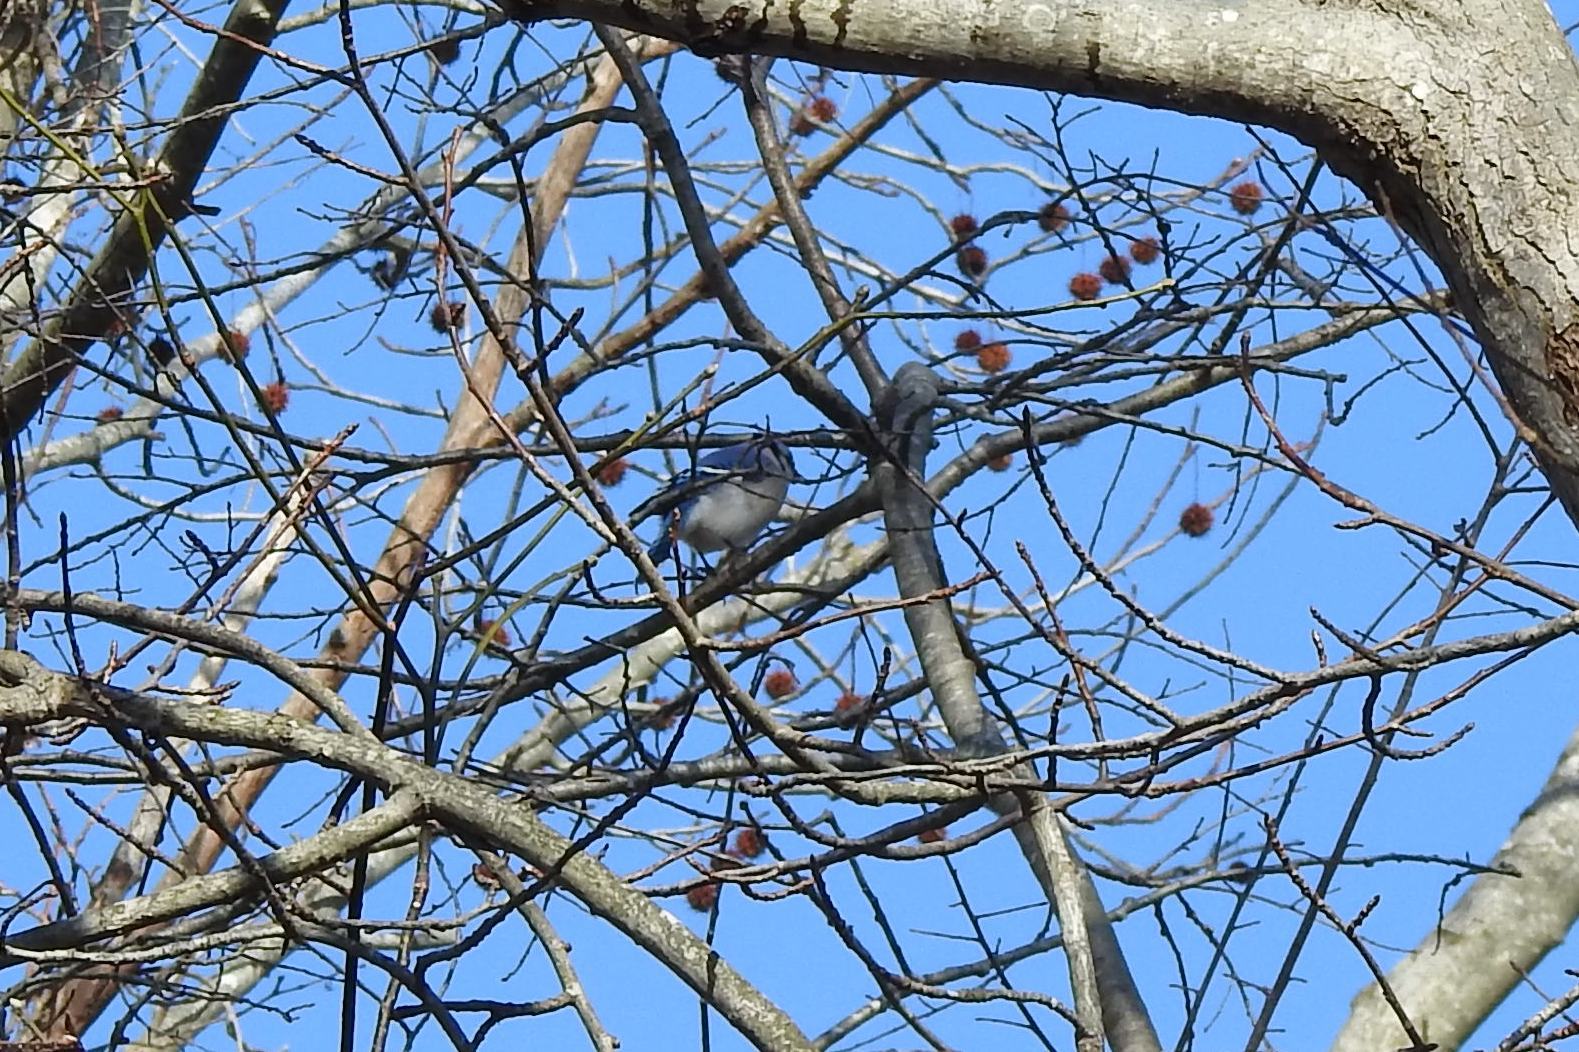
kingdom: Animalia
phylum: Chordata
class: Aves
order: Passeriformes
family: Corvidae
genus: Cyanocitta
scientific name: Cyanocitta cristata
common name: Blue jay
